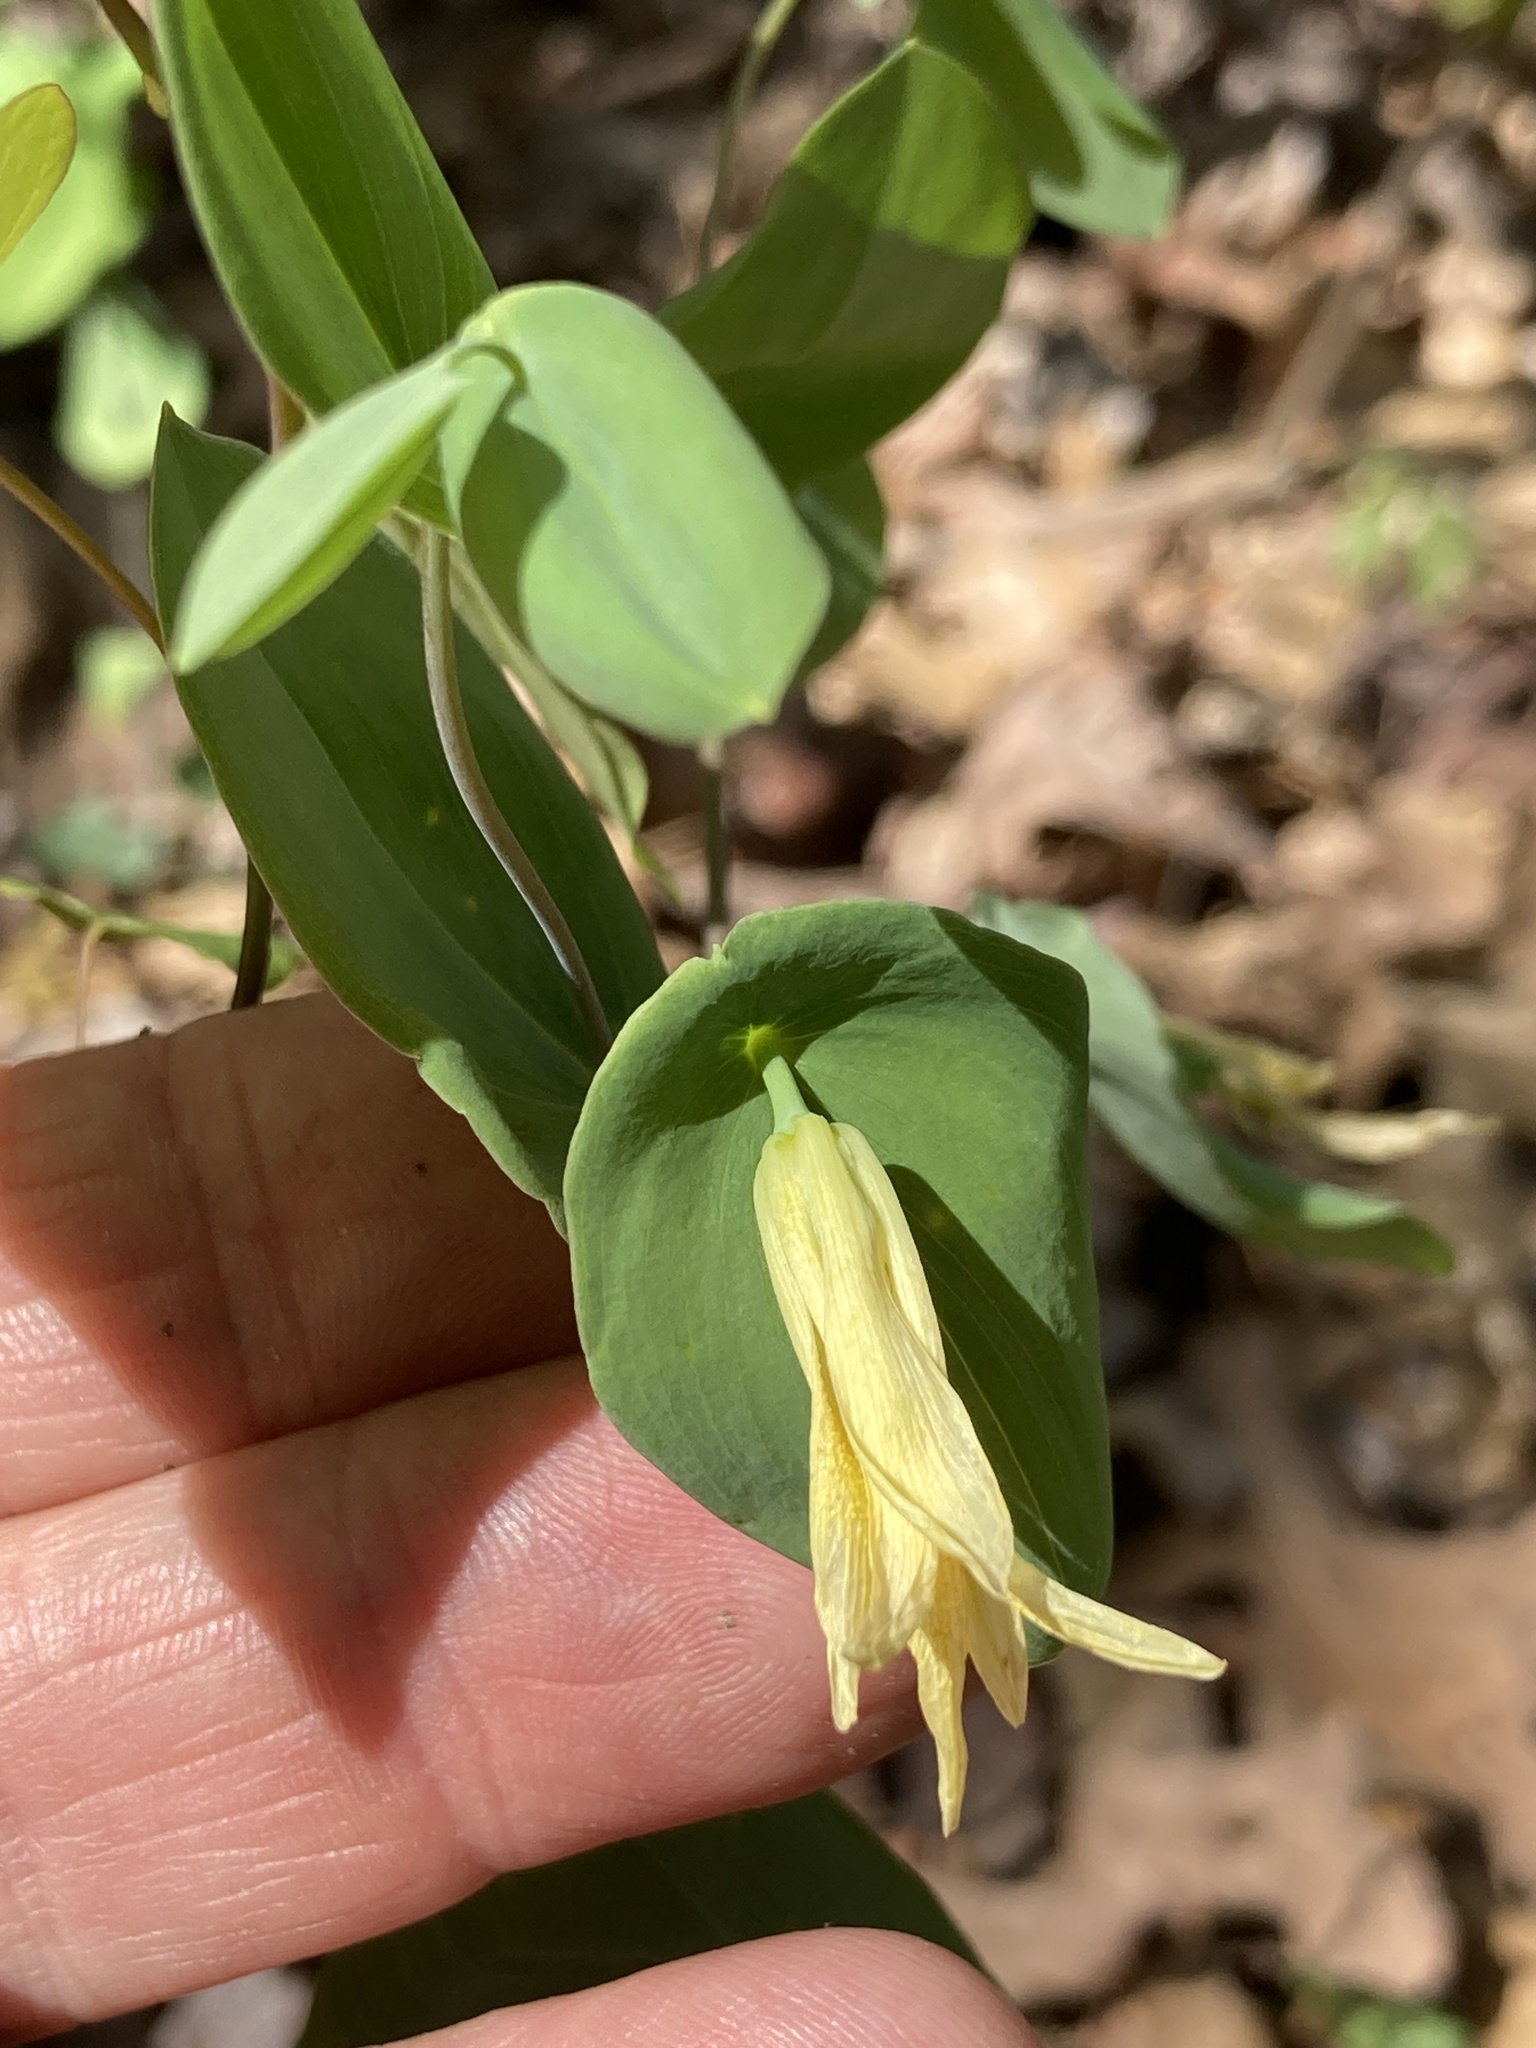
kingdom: Plantae
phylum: Tracheophyta
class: Liliopsida
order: Liliales
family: Colchicaceae
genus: Uvularia
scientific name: Uvularia perfoliata
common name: Perfoliate bellwort
